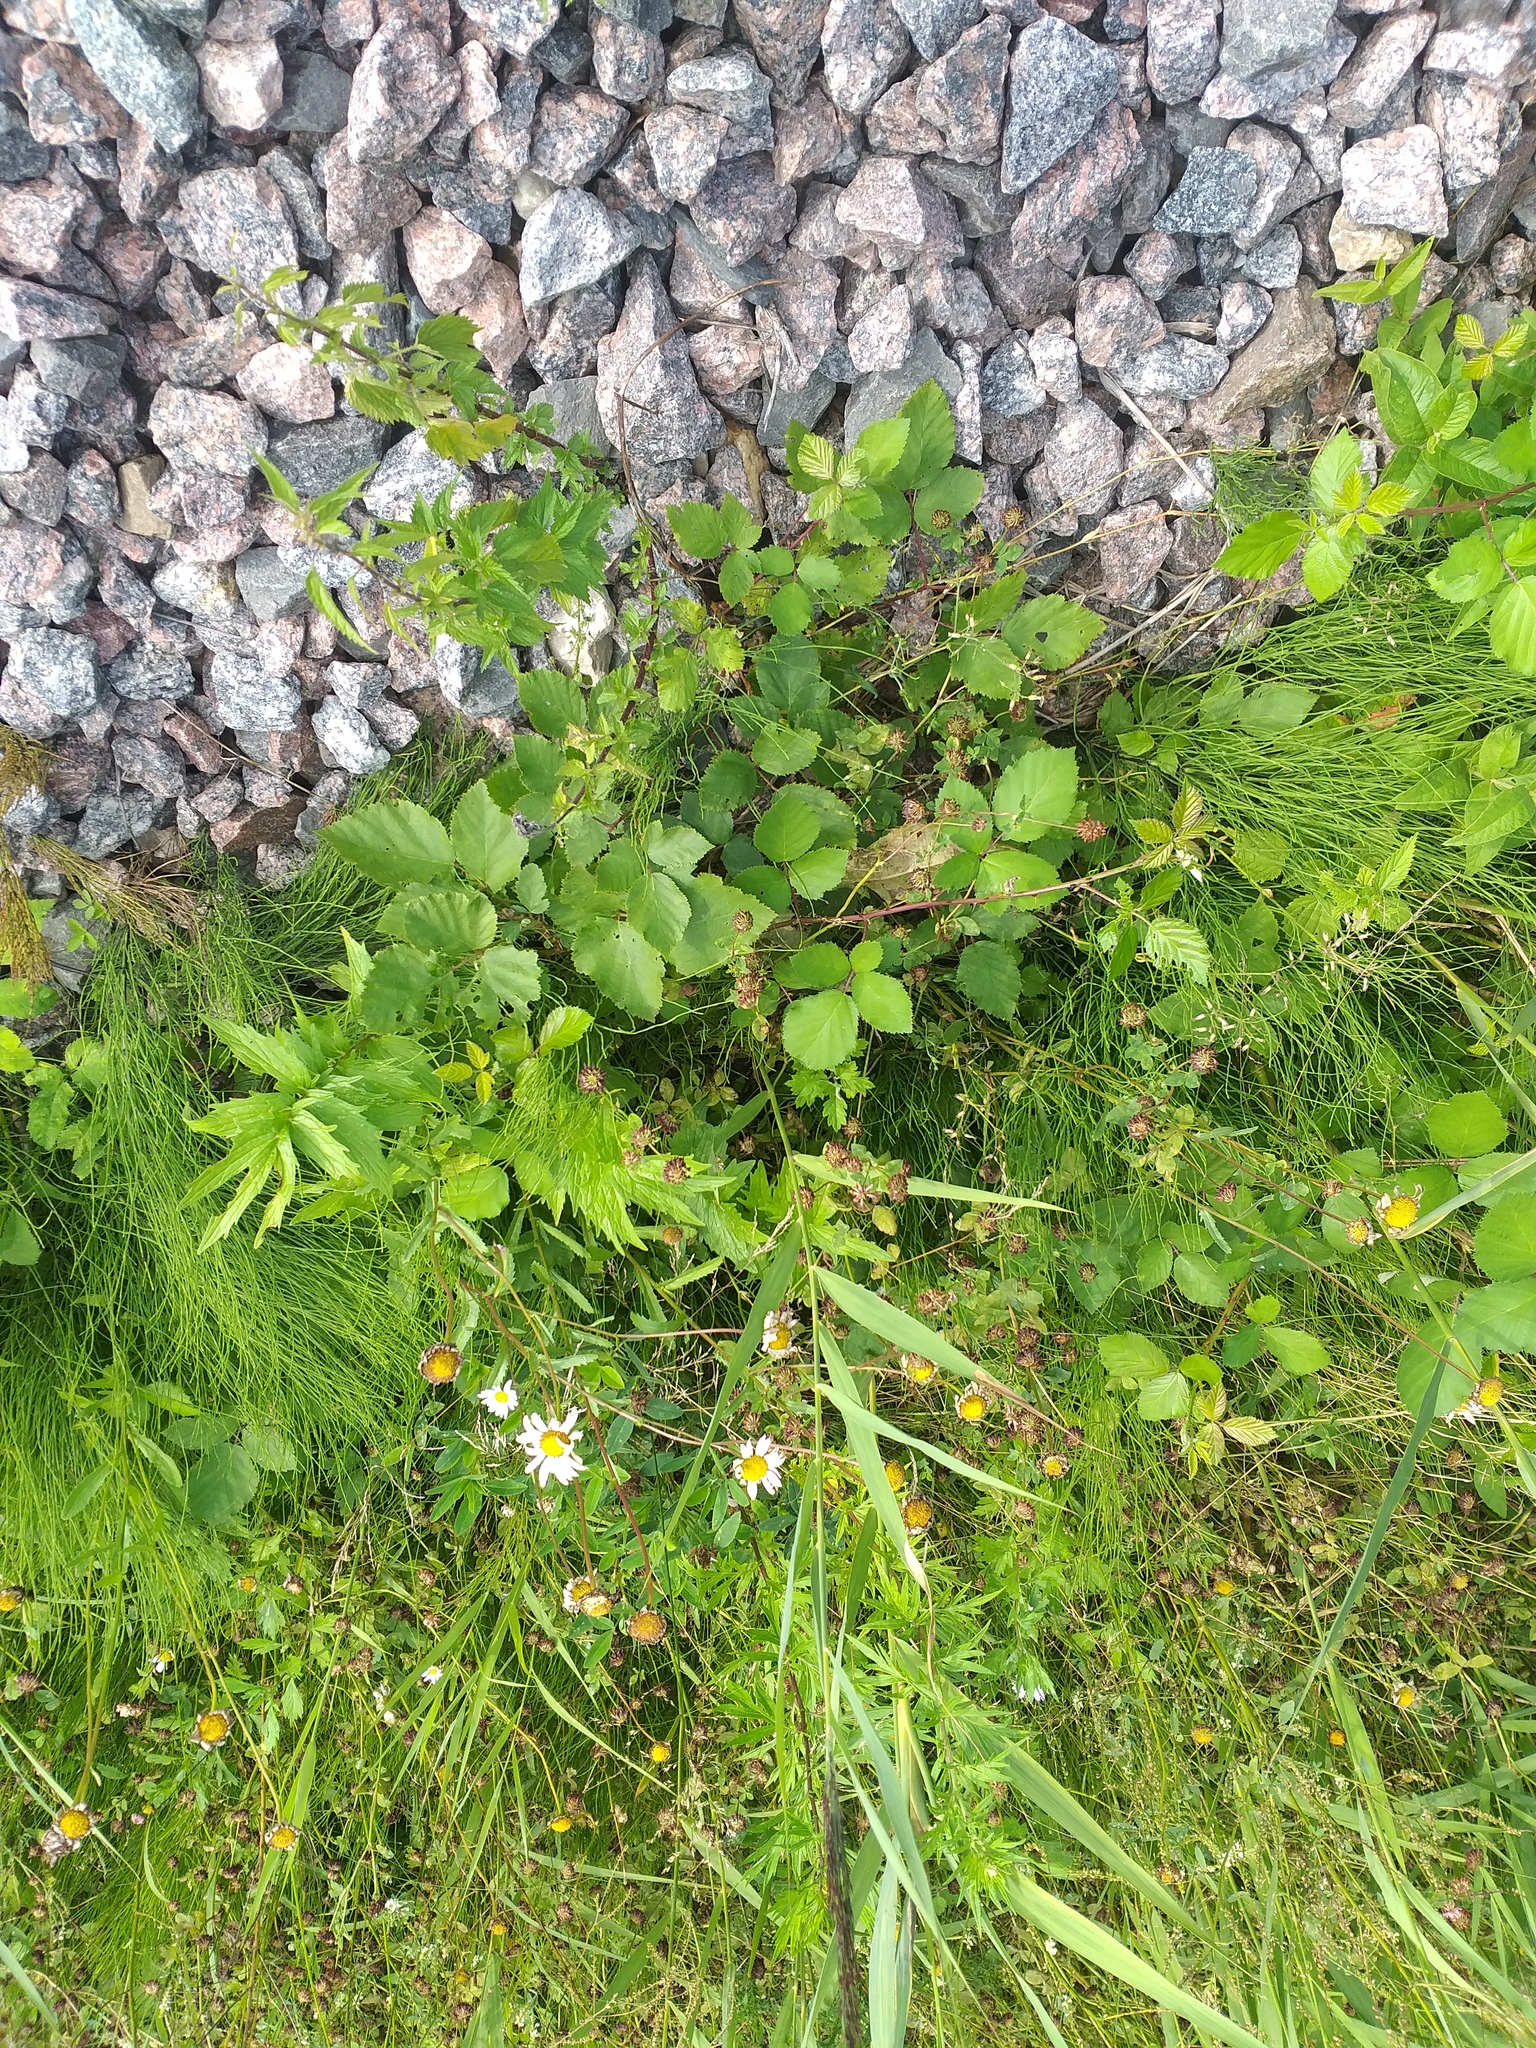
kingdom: Plantae
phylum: Tracheophyta
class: Magnoliopsida
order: Rosales
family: Rosaceae
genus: Rubus
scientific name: Rubus procerus
